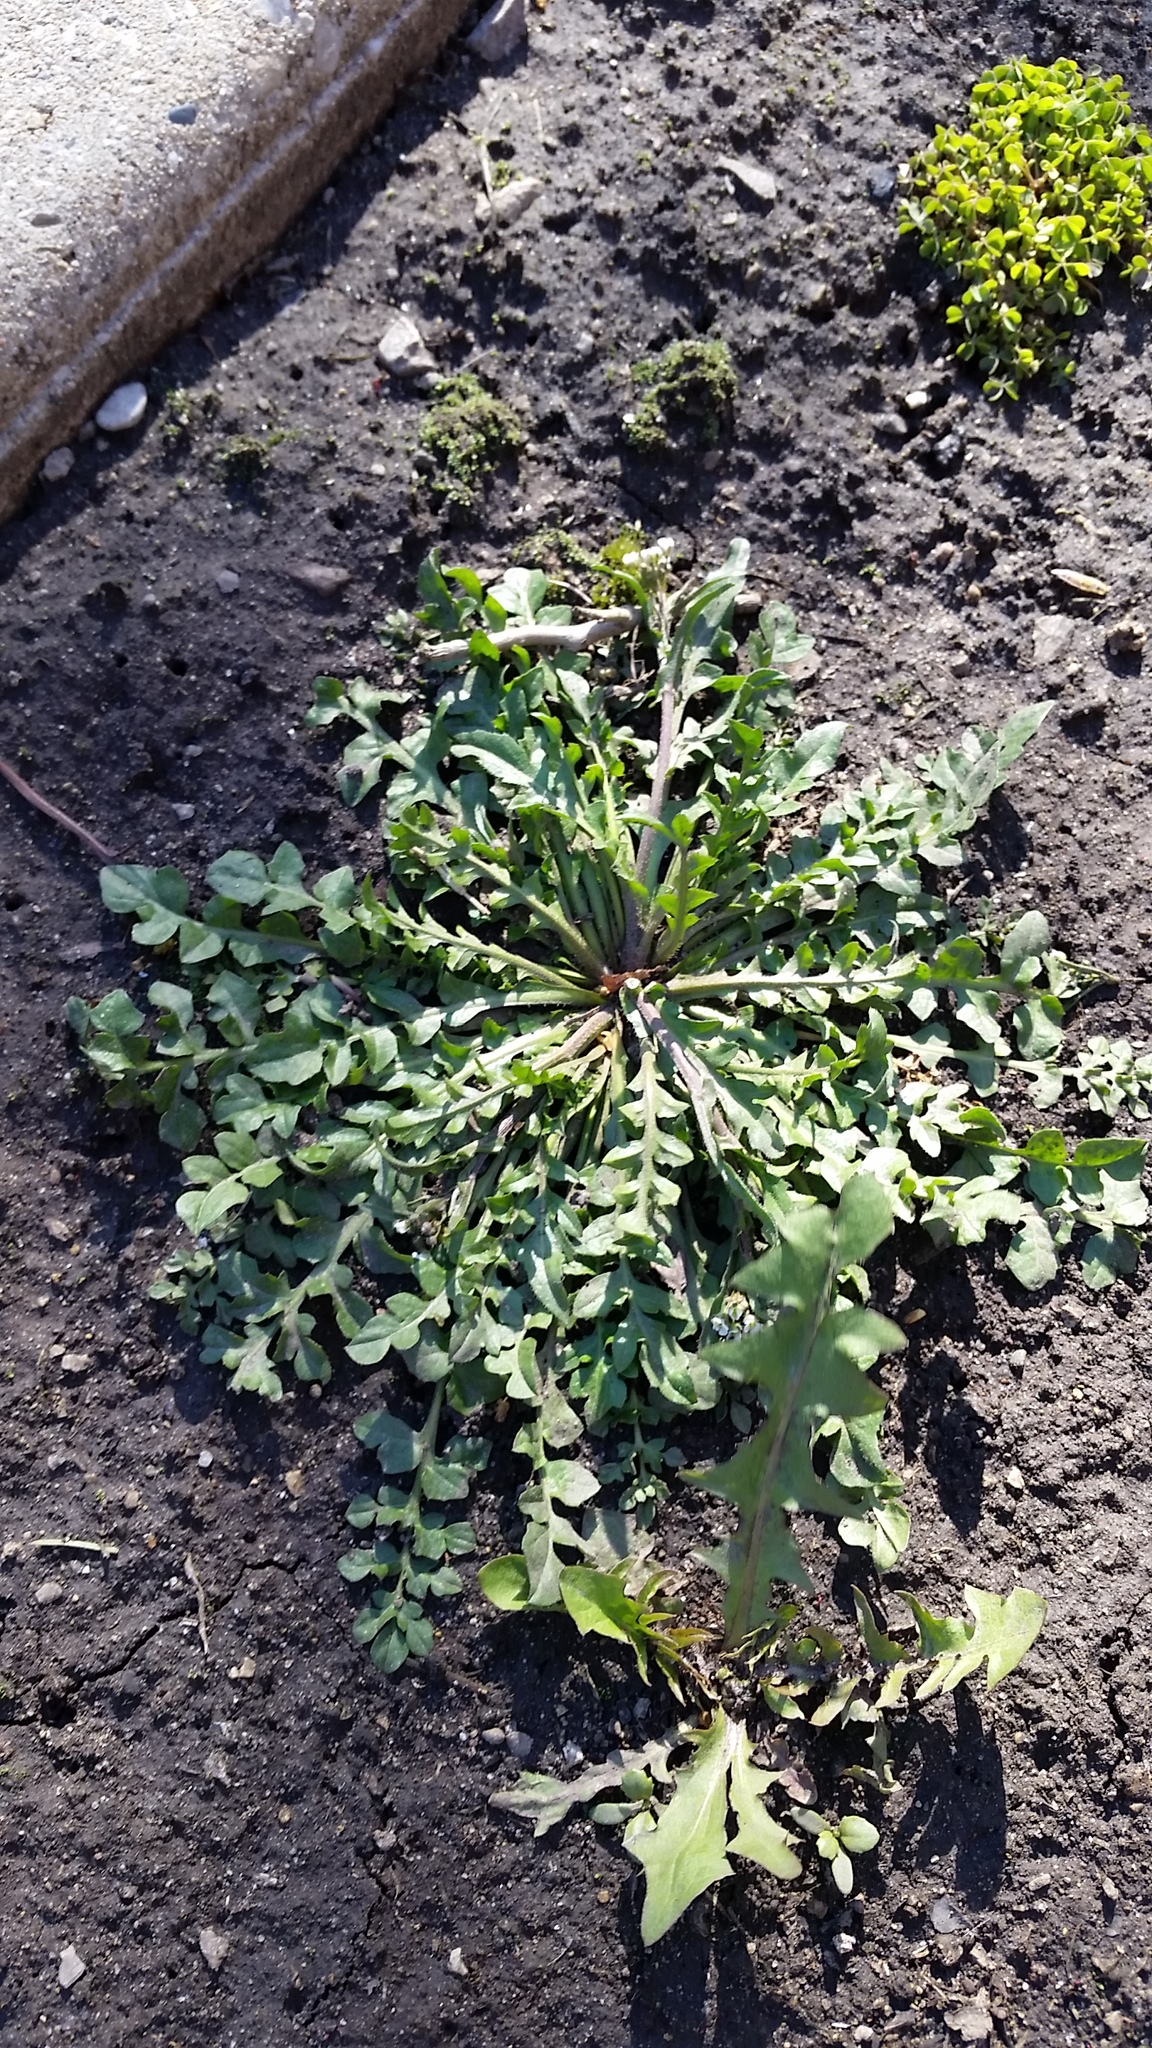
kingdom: Plantae
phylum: Tracheophyta
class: Magnoliopsida
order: Brassicales
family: Brassicaceae
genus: Capsella
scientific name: Capsella bursa-pastoris
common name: Shepherd's purse
